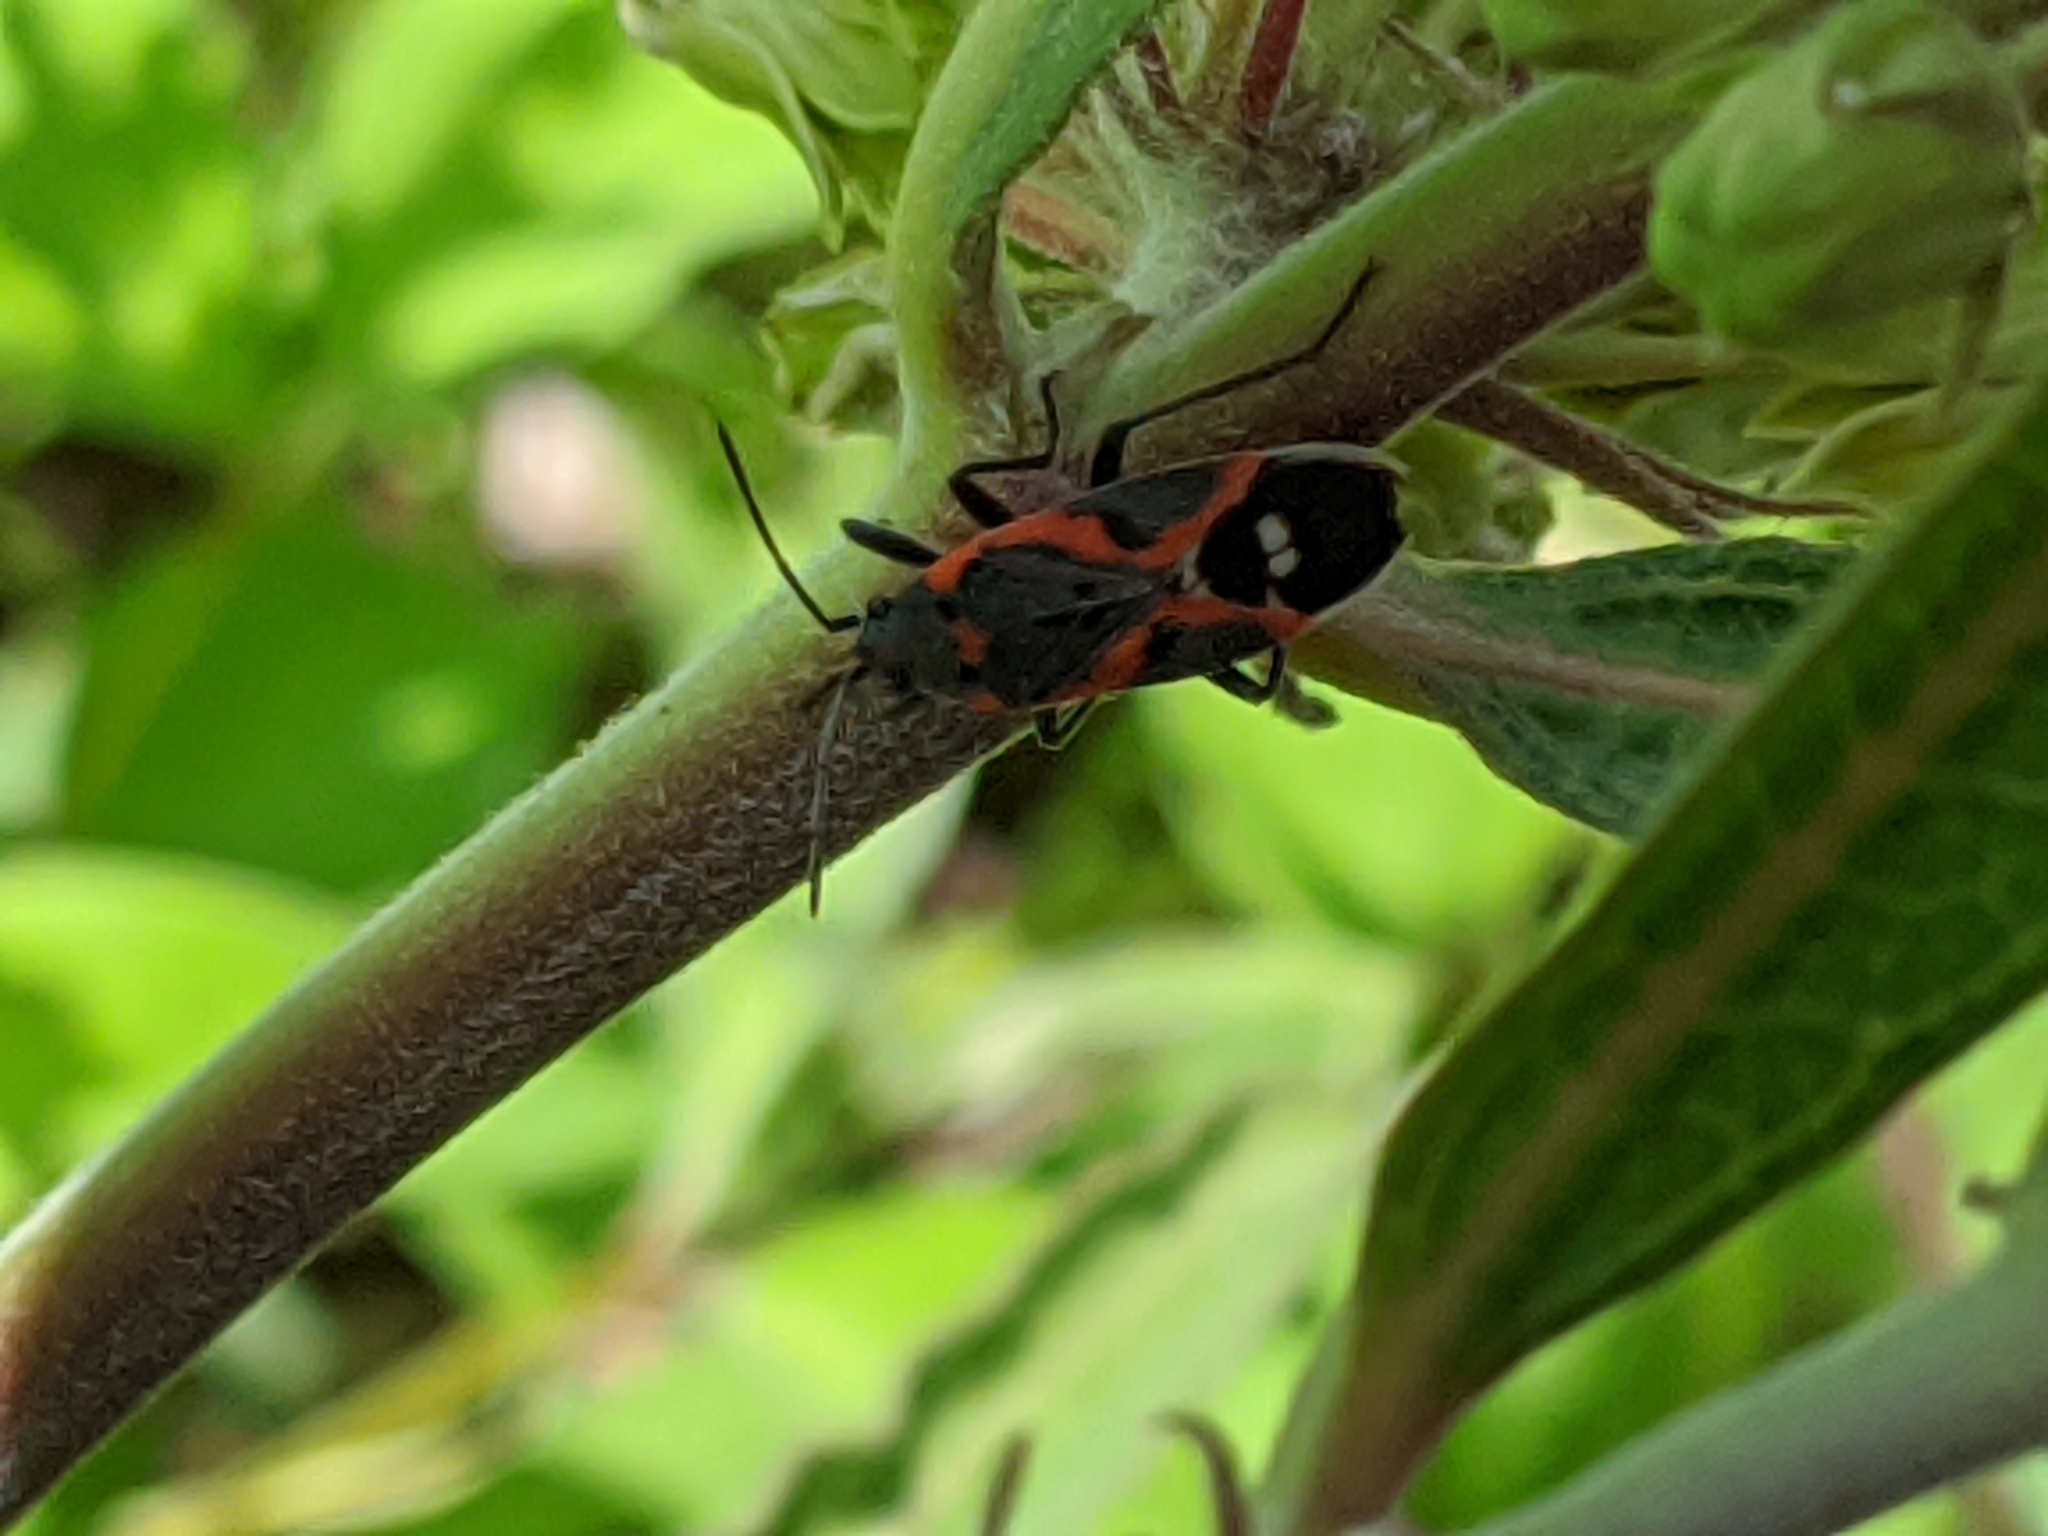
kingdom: Animalia
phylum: Arthropoda
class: Insecta
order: Hemiptera
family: Lygaeidae
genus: Lygaeus
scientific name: Lygaeus kalmii
